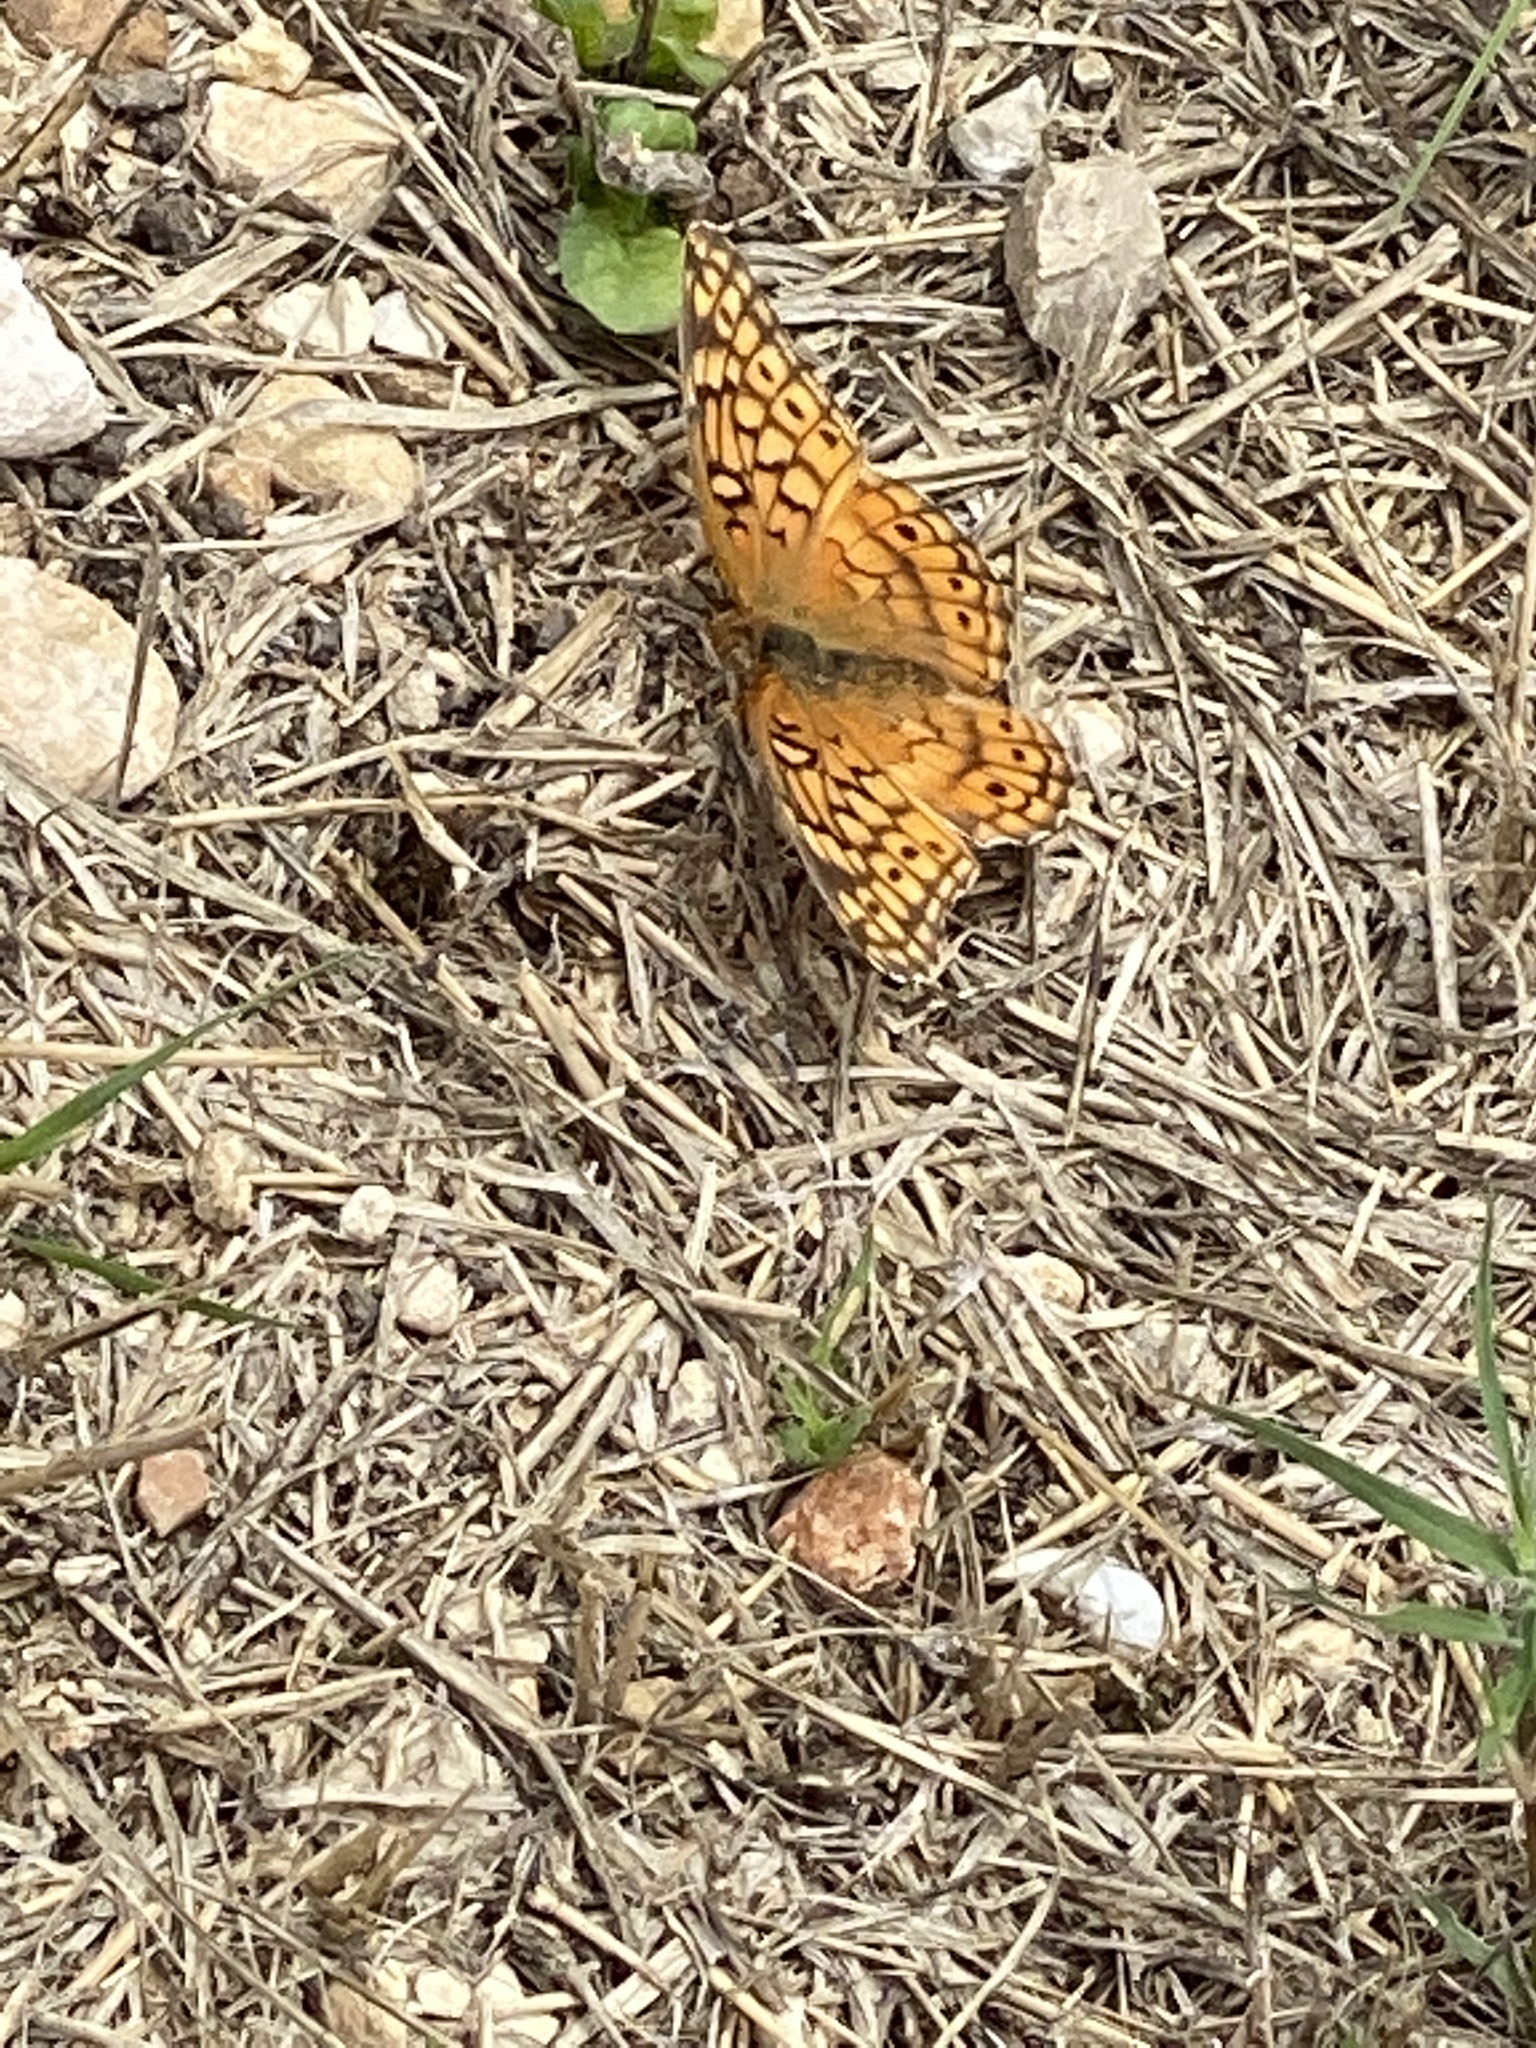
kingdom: Animalia
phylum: Arthropoda
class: Insecta
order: Lepidoptera
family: Nymphalidae
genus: Euptoieta
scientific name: Euptoieta claudia
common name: Variegated fritillary
